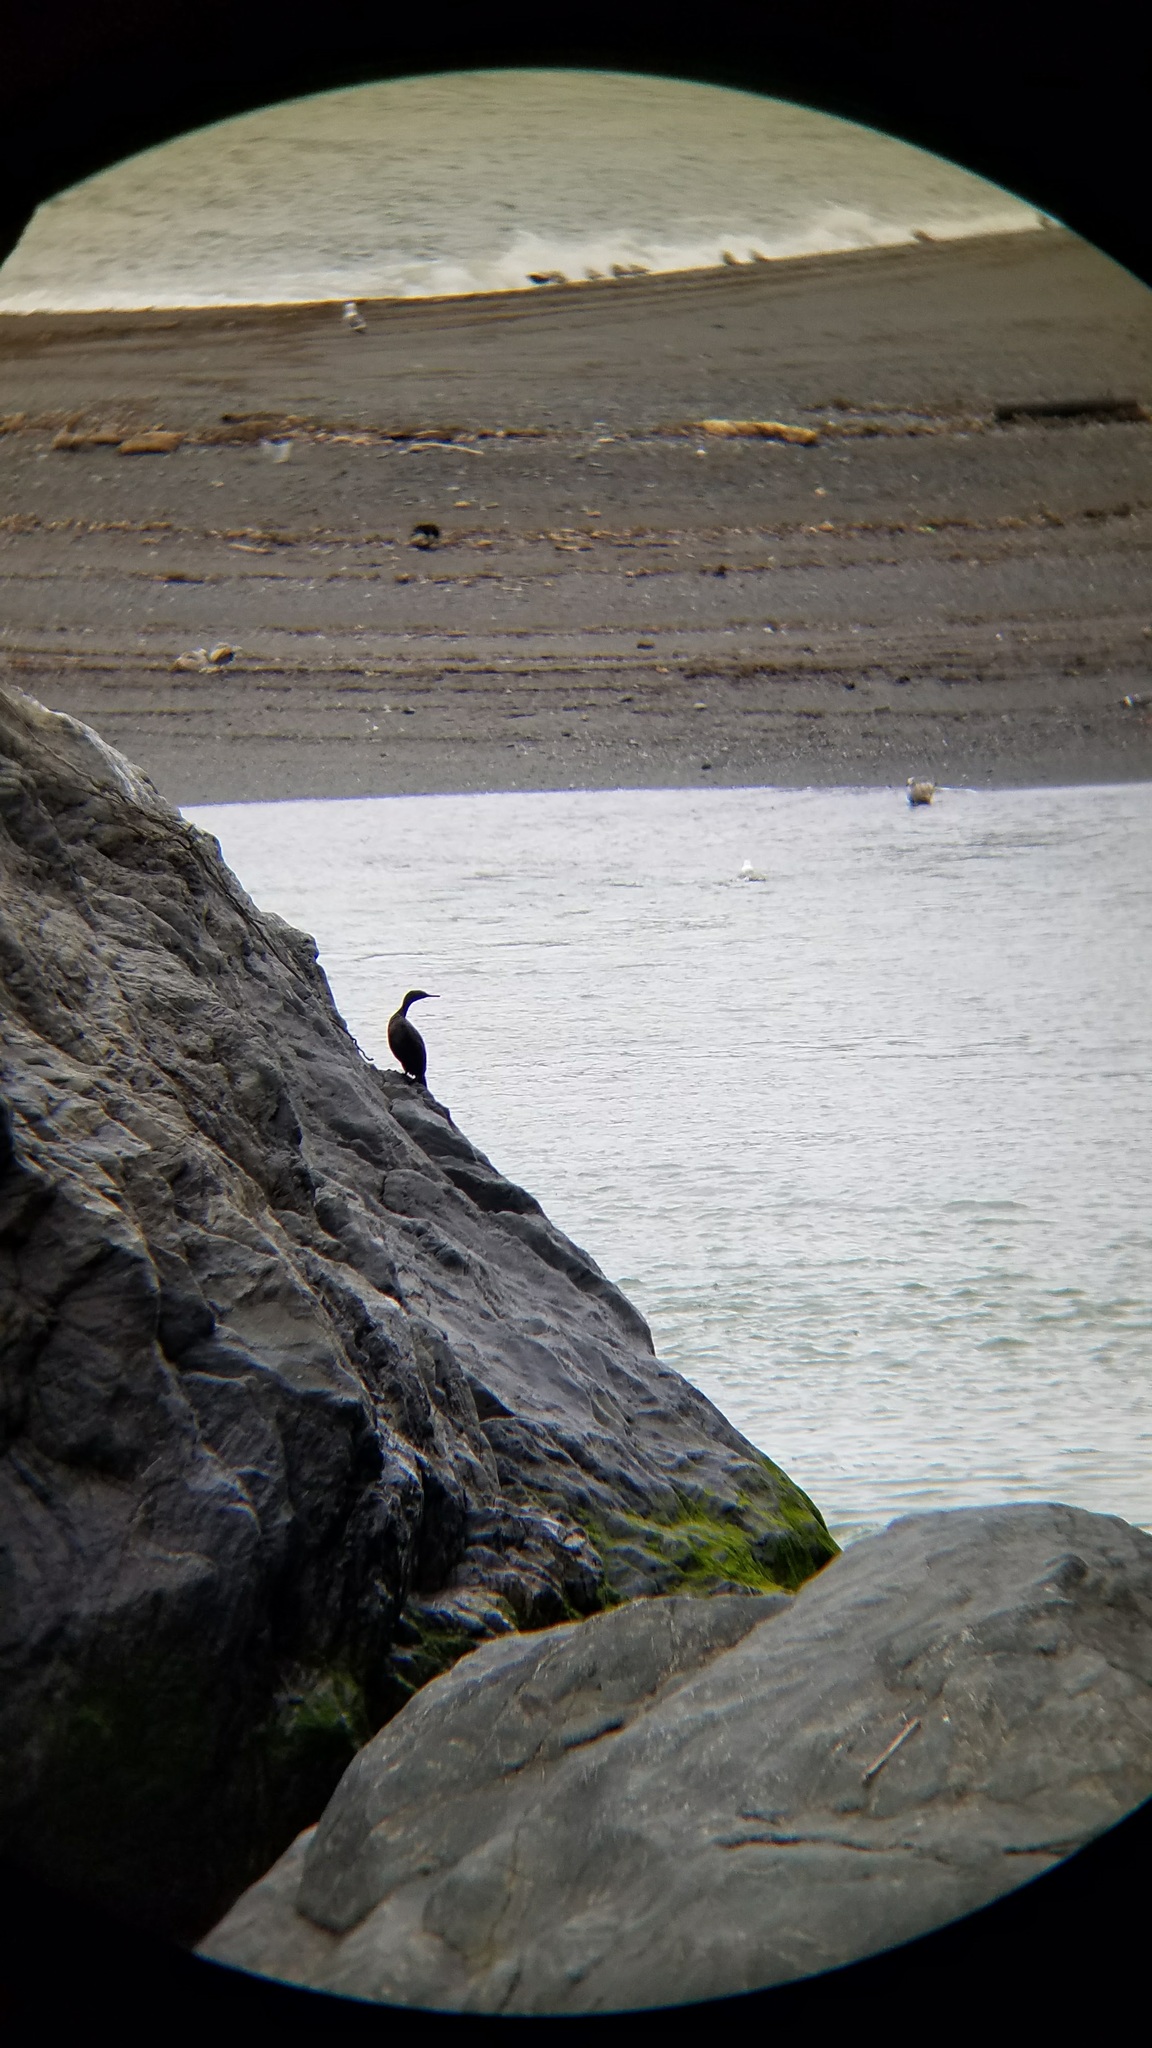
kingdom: Animalia
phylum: Chordata
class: Aves
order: Suliformes
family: Phalacrocoracidae
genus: Phalacrocorax
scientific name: Phalacrocorax pelagicus
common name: Pelagic cormorant
